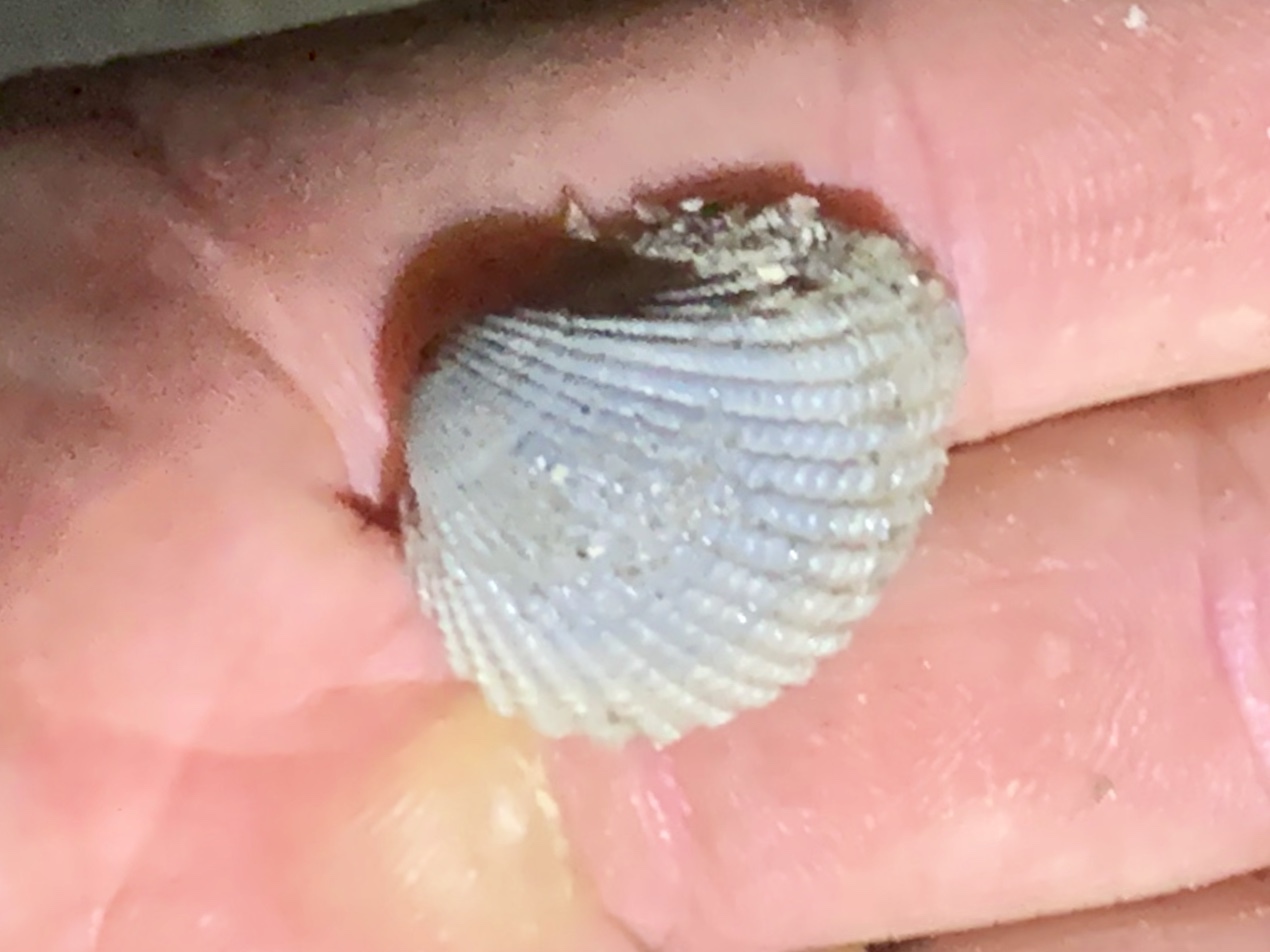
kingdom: Animalia
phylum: Mollusca
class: Bivalvia
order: Arcida
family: Arcidae
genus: Anadara
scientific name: Anadara brasiliana
